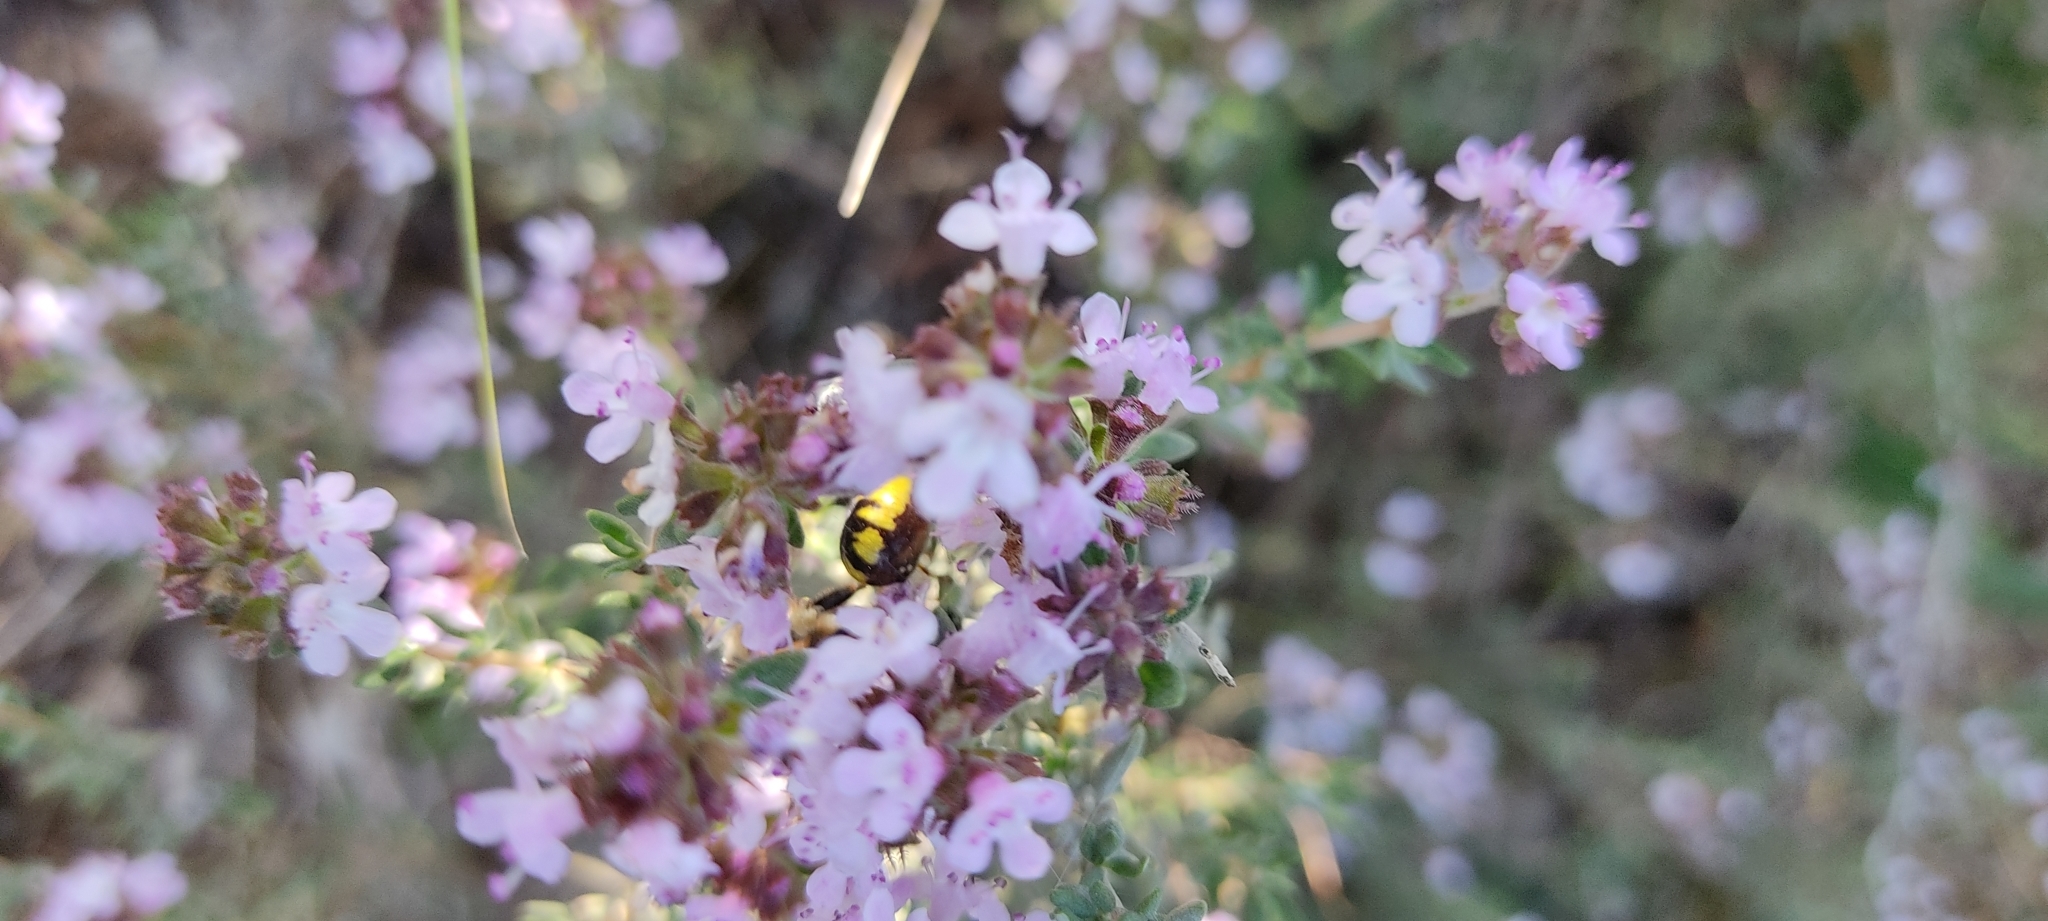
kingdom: Animalia
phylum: Arthropoda
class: Arachnida
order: Araneae
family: Thomisidae
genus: Synema
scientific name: Synema globosum
